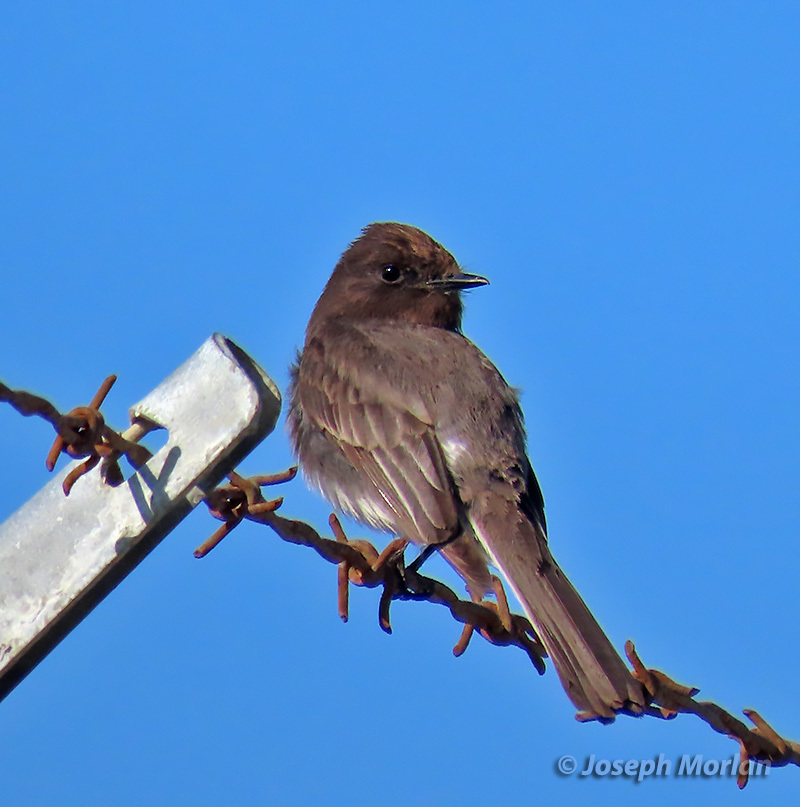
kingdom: Animalia
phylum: Chordata
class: Aves
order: Passeriformes
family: Tyrannidae
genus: Sayornis
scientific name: Sayornis nigricans
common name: Black phoebe
